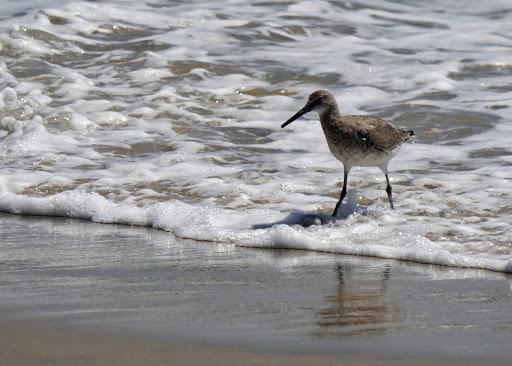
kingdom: Animalia
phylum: Chordata
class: Aves
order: Charadriiformes
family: Scolopacidae
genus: Tringa
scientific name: Tringa semipalmata
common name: Willet
